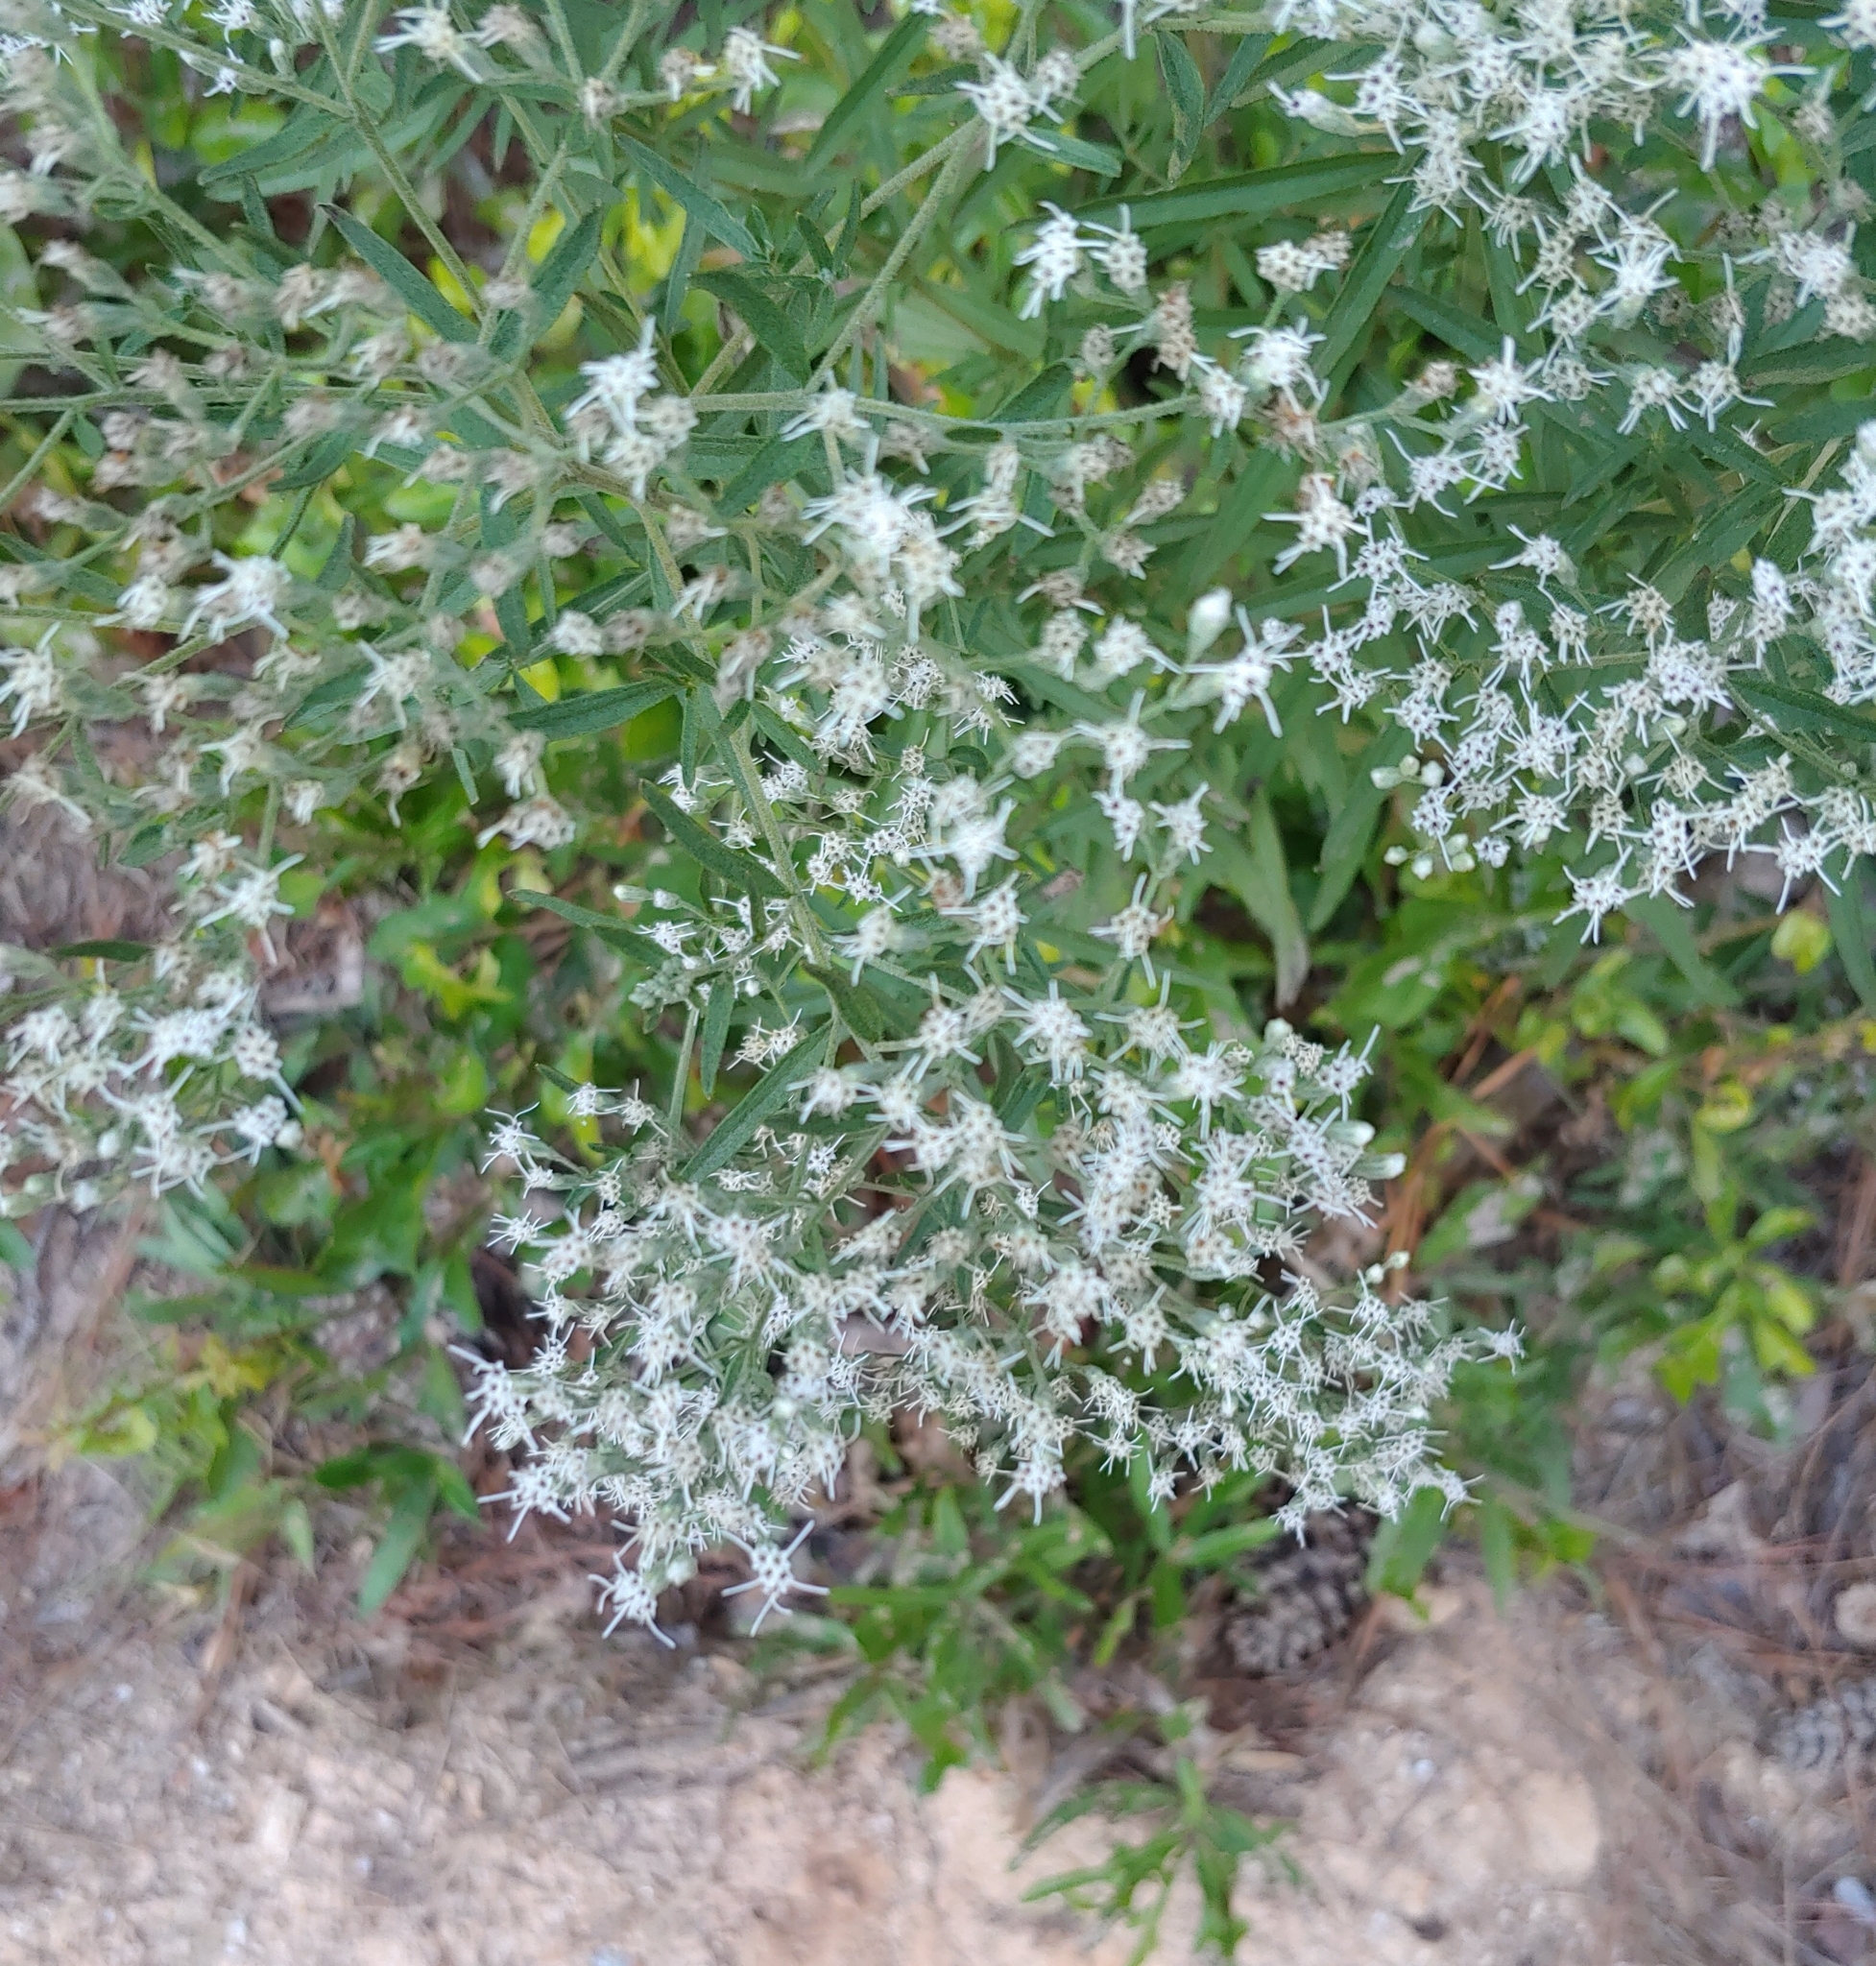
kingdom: Plantae
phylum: Tracheophyta
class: Magnoliopsida
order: Asterales
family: Asteraceae
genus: Eupatorium
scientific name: Eupatorium torreyanum
